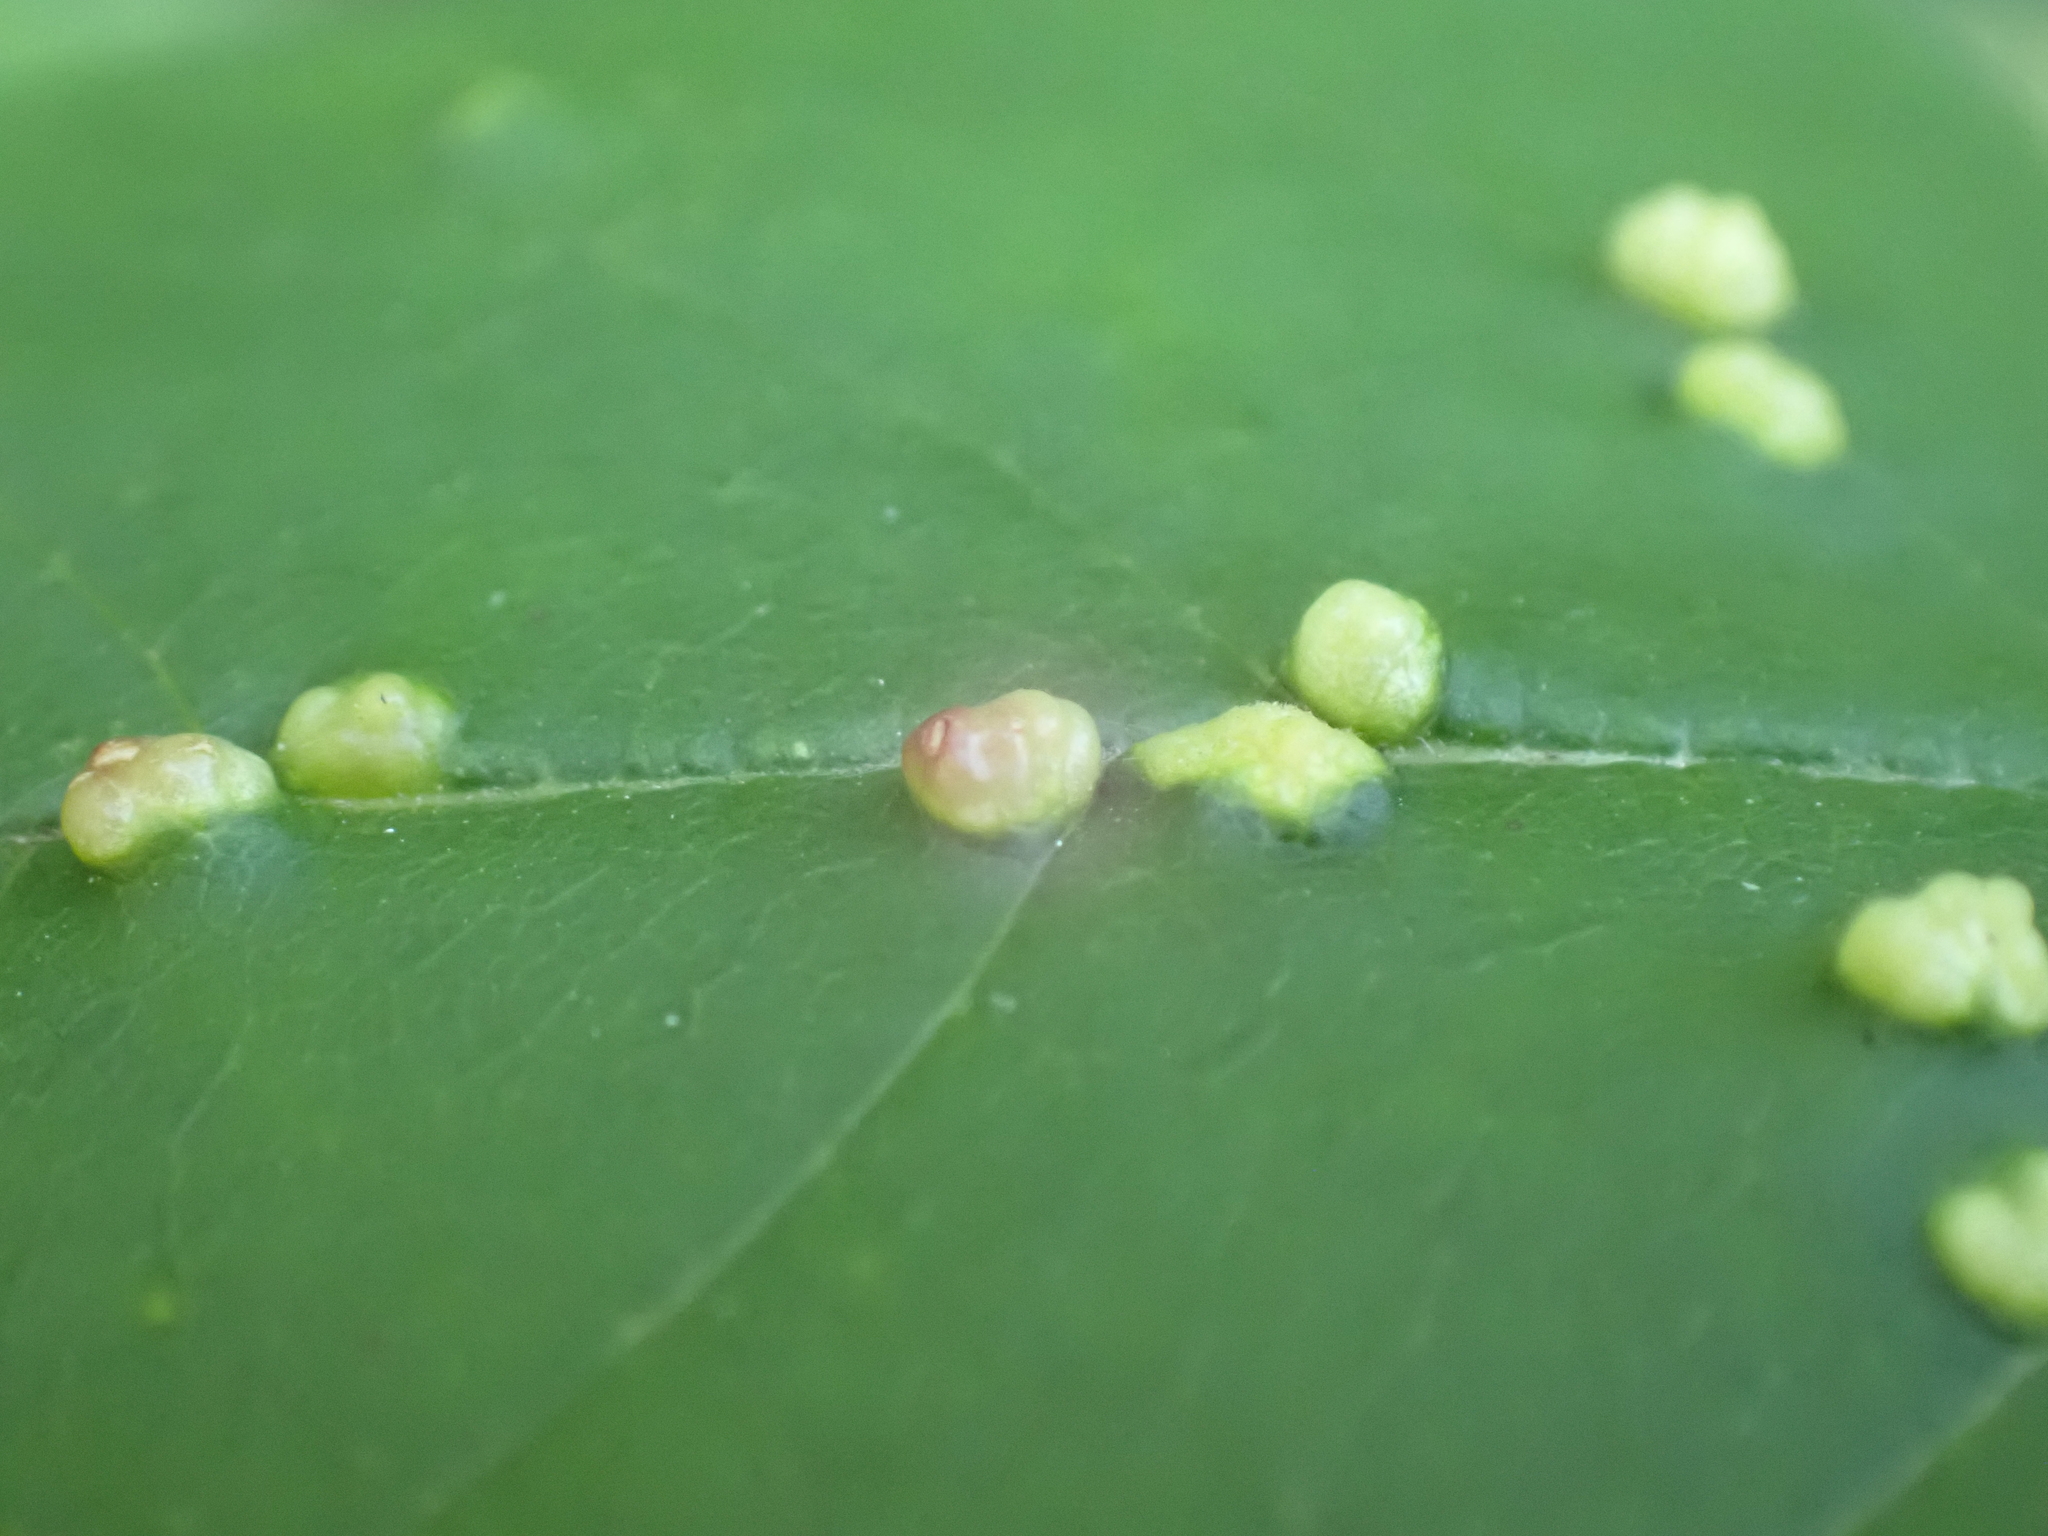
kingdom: Animalia
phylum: Arthropoda
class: Arachnida
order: Trombidiformes
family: Eriophyidae
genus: Aceria
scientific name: Aceria fraxinicola
